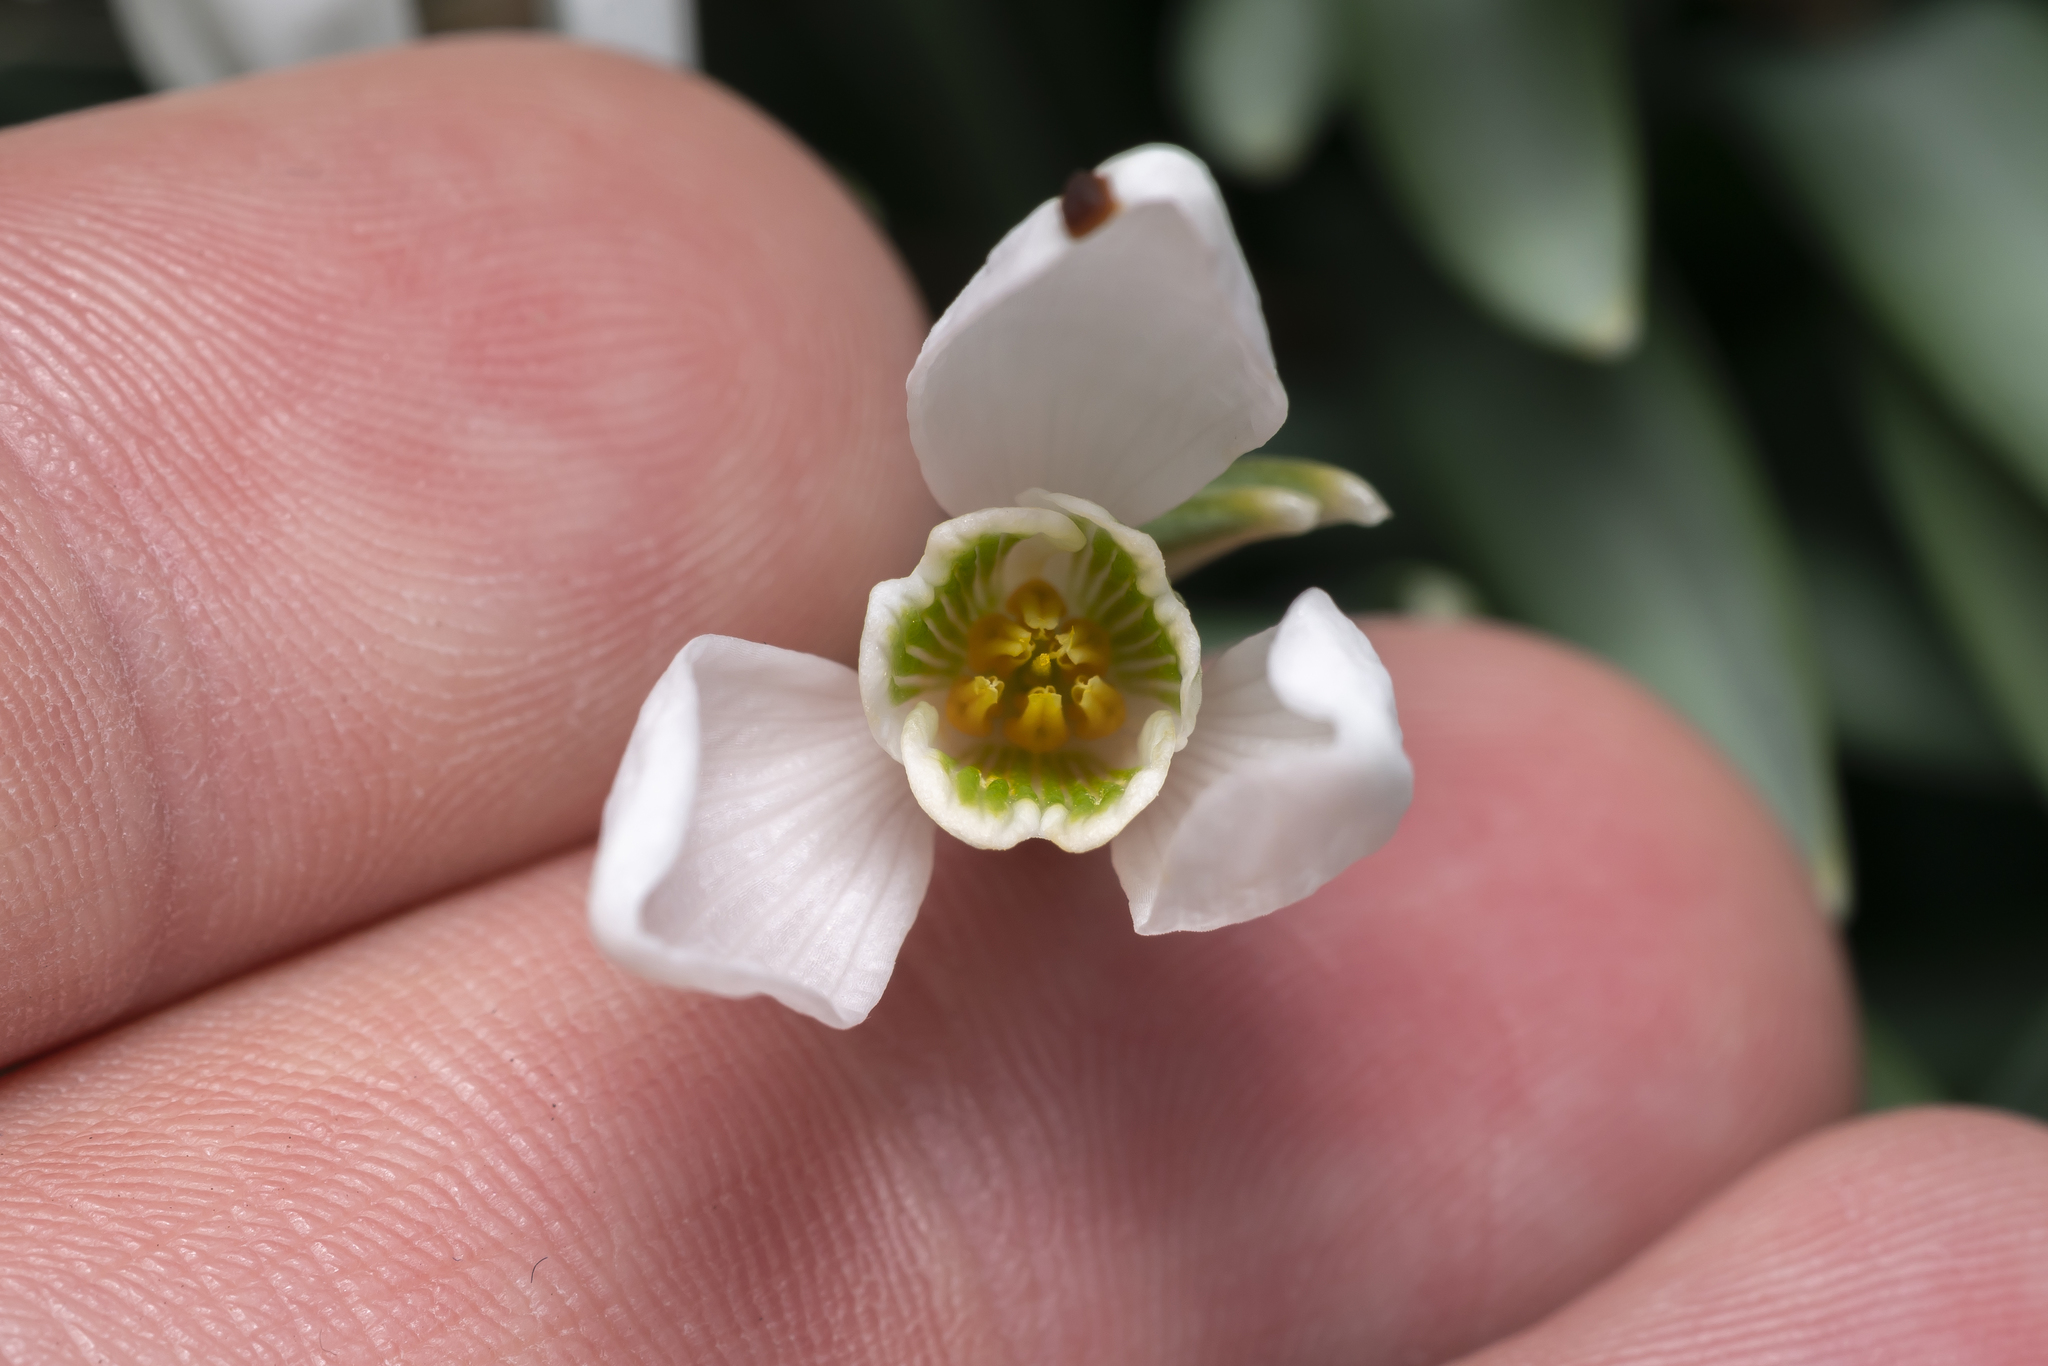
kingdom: Plantae
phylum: Tracheophyta
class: Liliopsida
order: Asparagales
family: Amaryllidaceae
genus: Galanthus
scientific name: Galanthus nivalis
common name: Snowdrop
